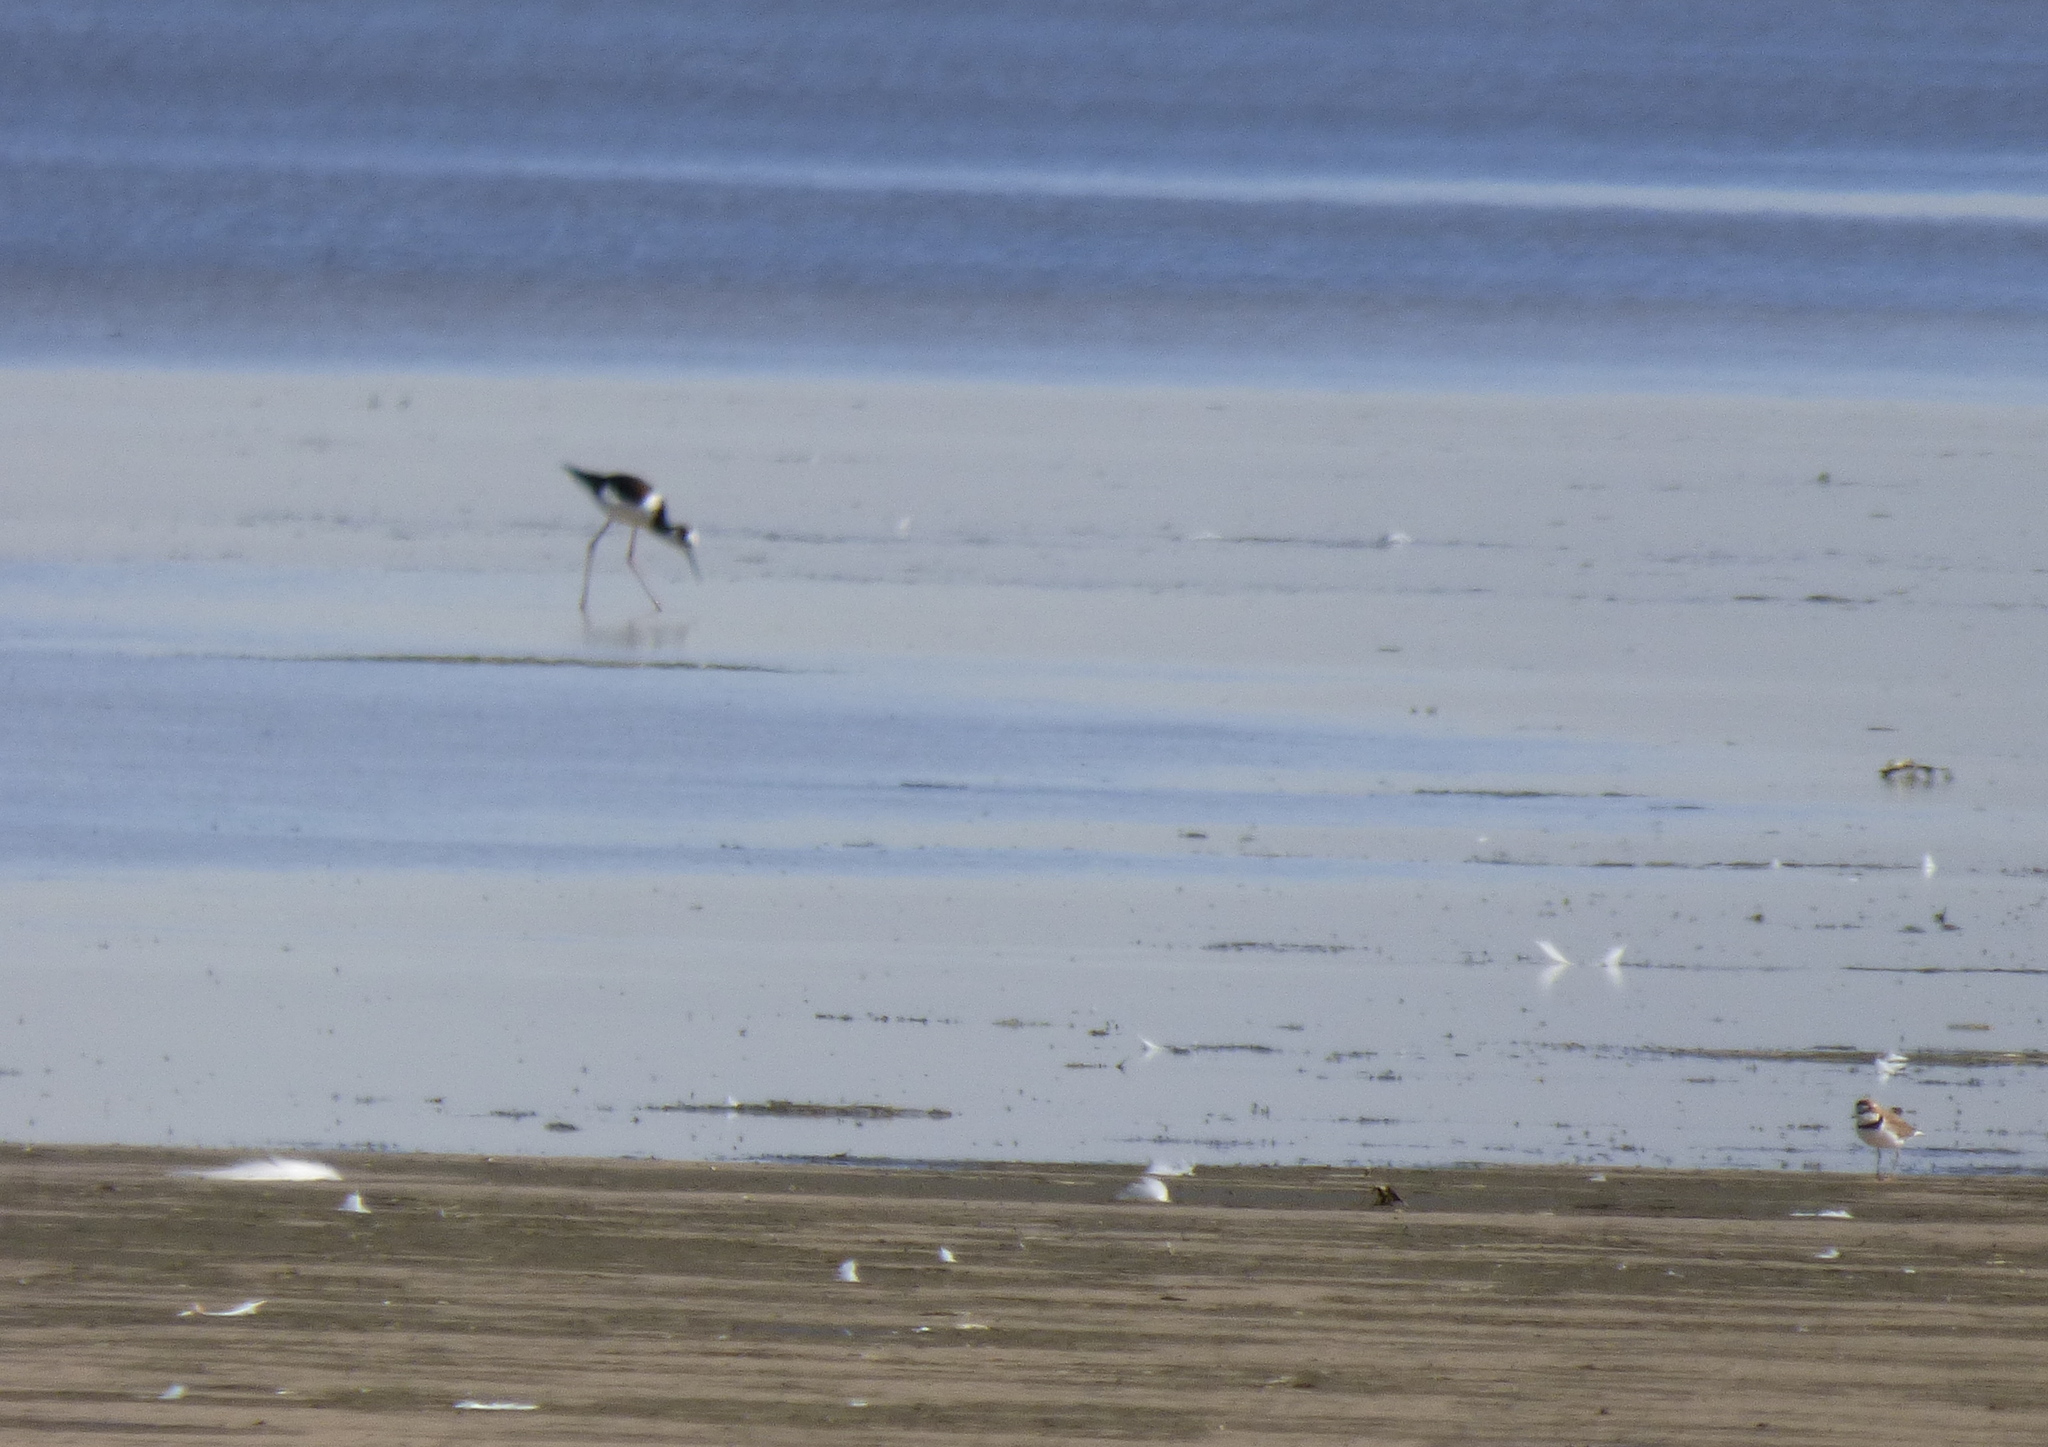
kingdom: Animalia
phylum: Chordata
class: Aves
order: Charadriiformes
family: Recurvirostridae
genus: Himantopus
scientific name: Himantopus mexicanus
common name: Black-necked stilt
